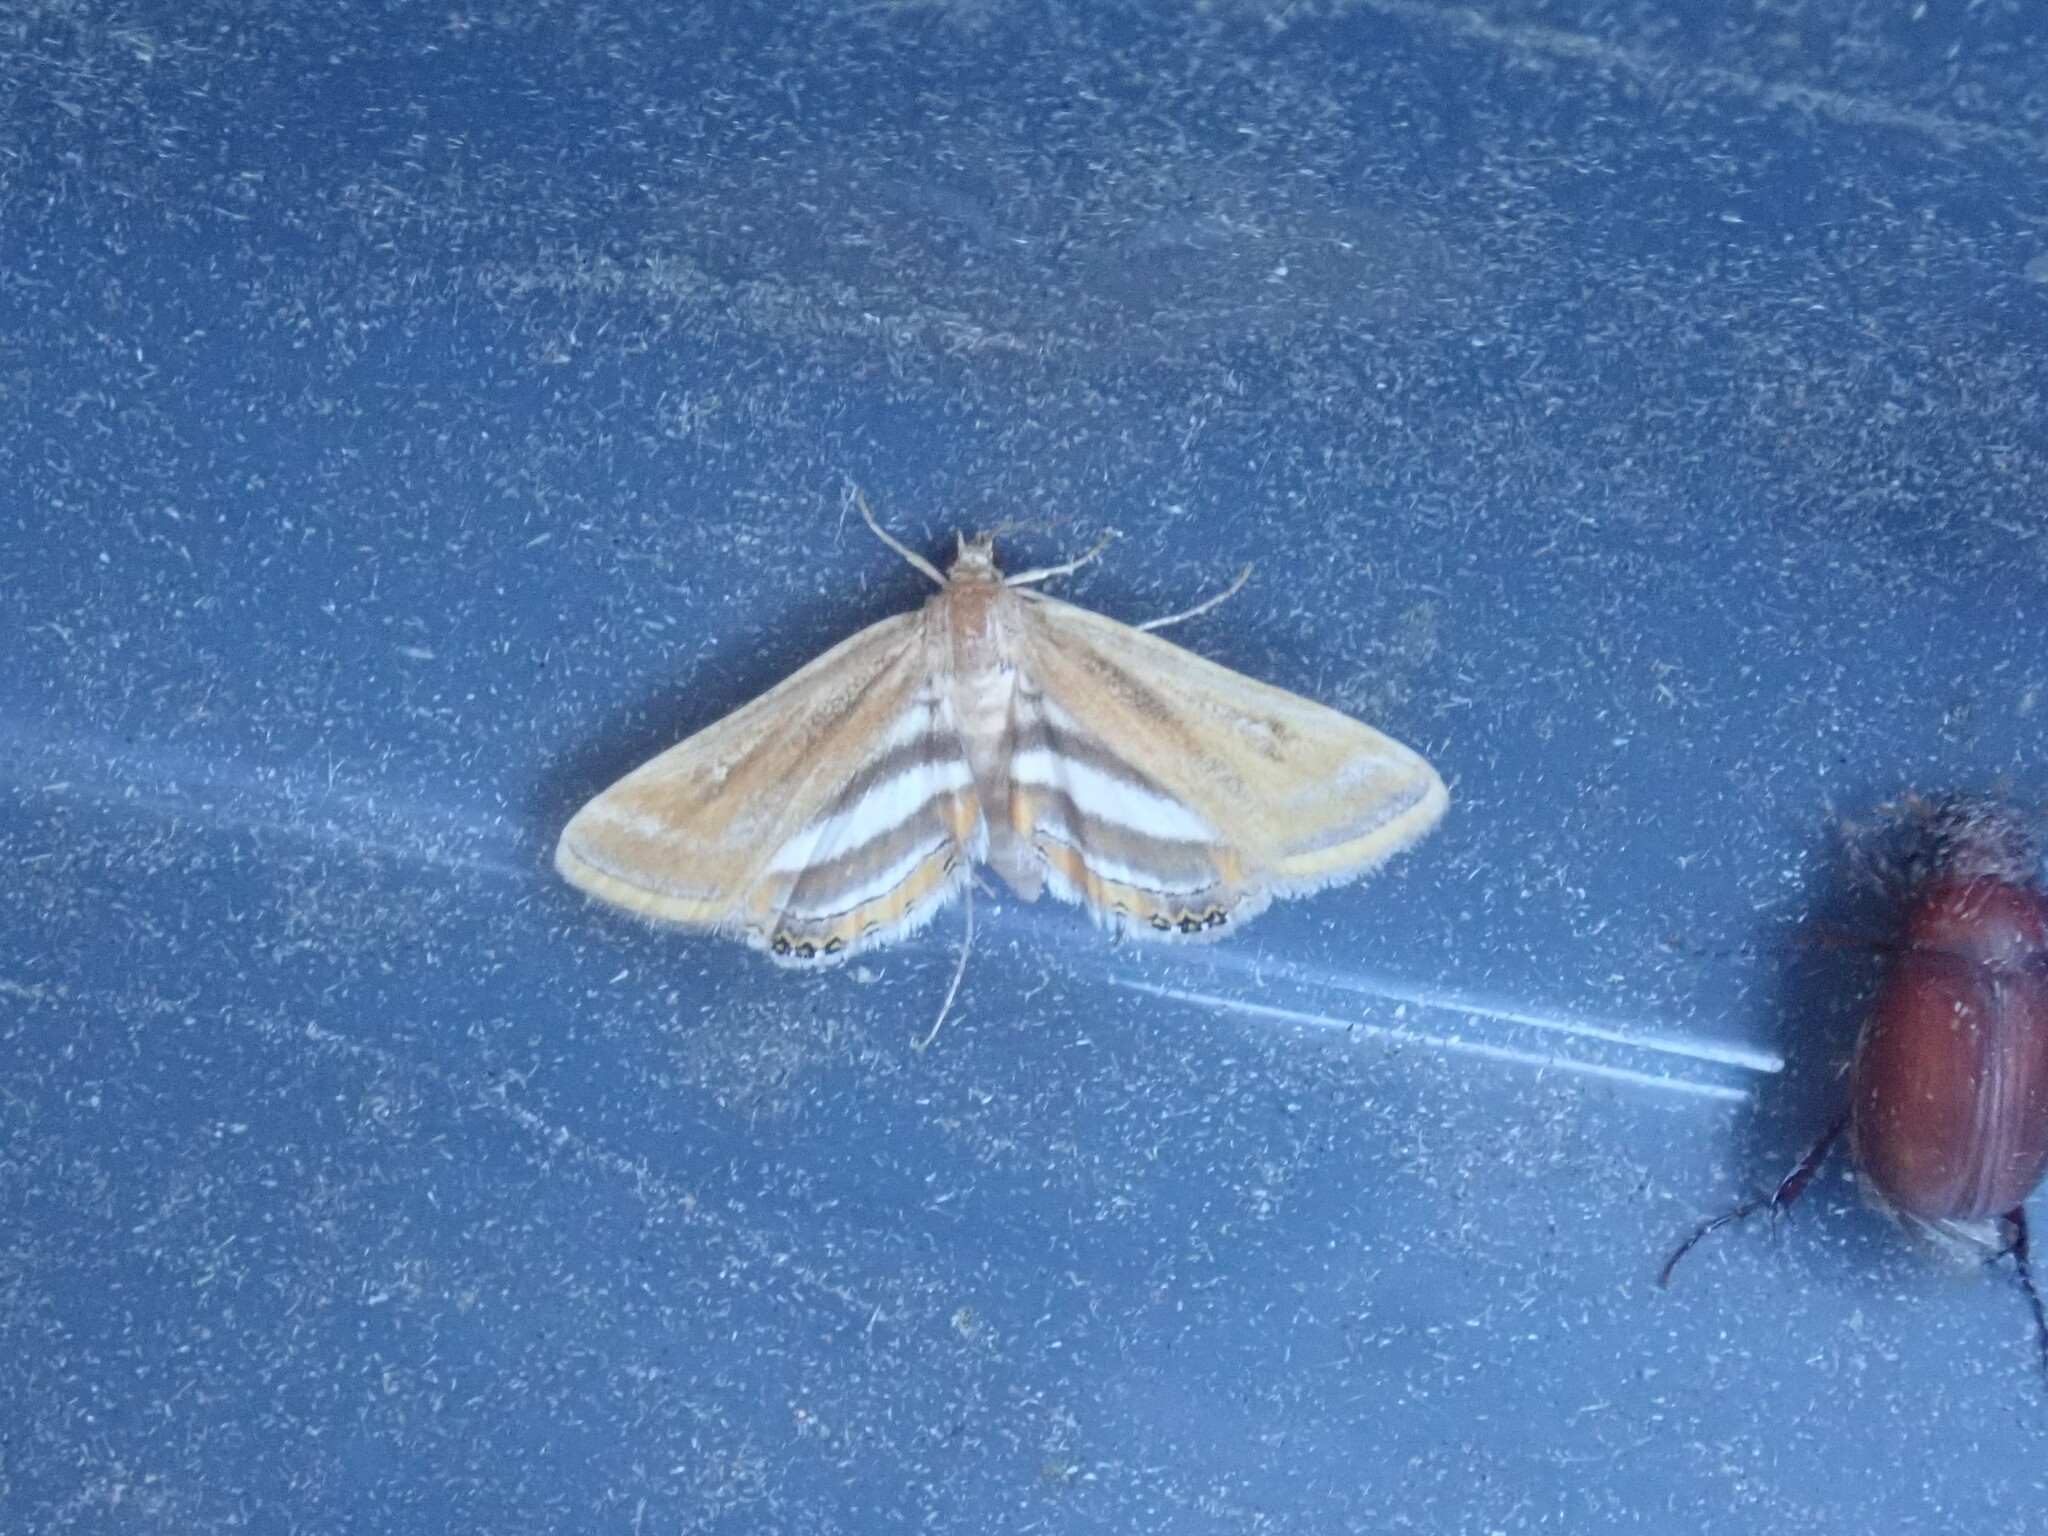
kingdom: Animalia
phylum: Arthropoda
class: Insecta
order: Lepidoptera
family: Crambidae
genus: Parapoynx
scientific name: Parapoynx seminealis
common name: Floating-heart waterlily leafcutter
